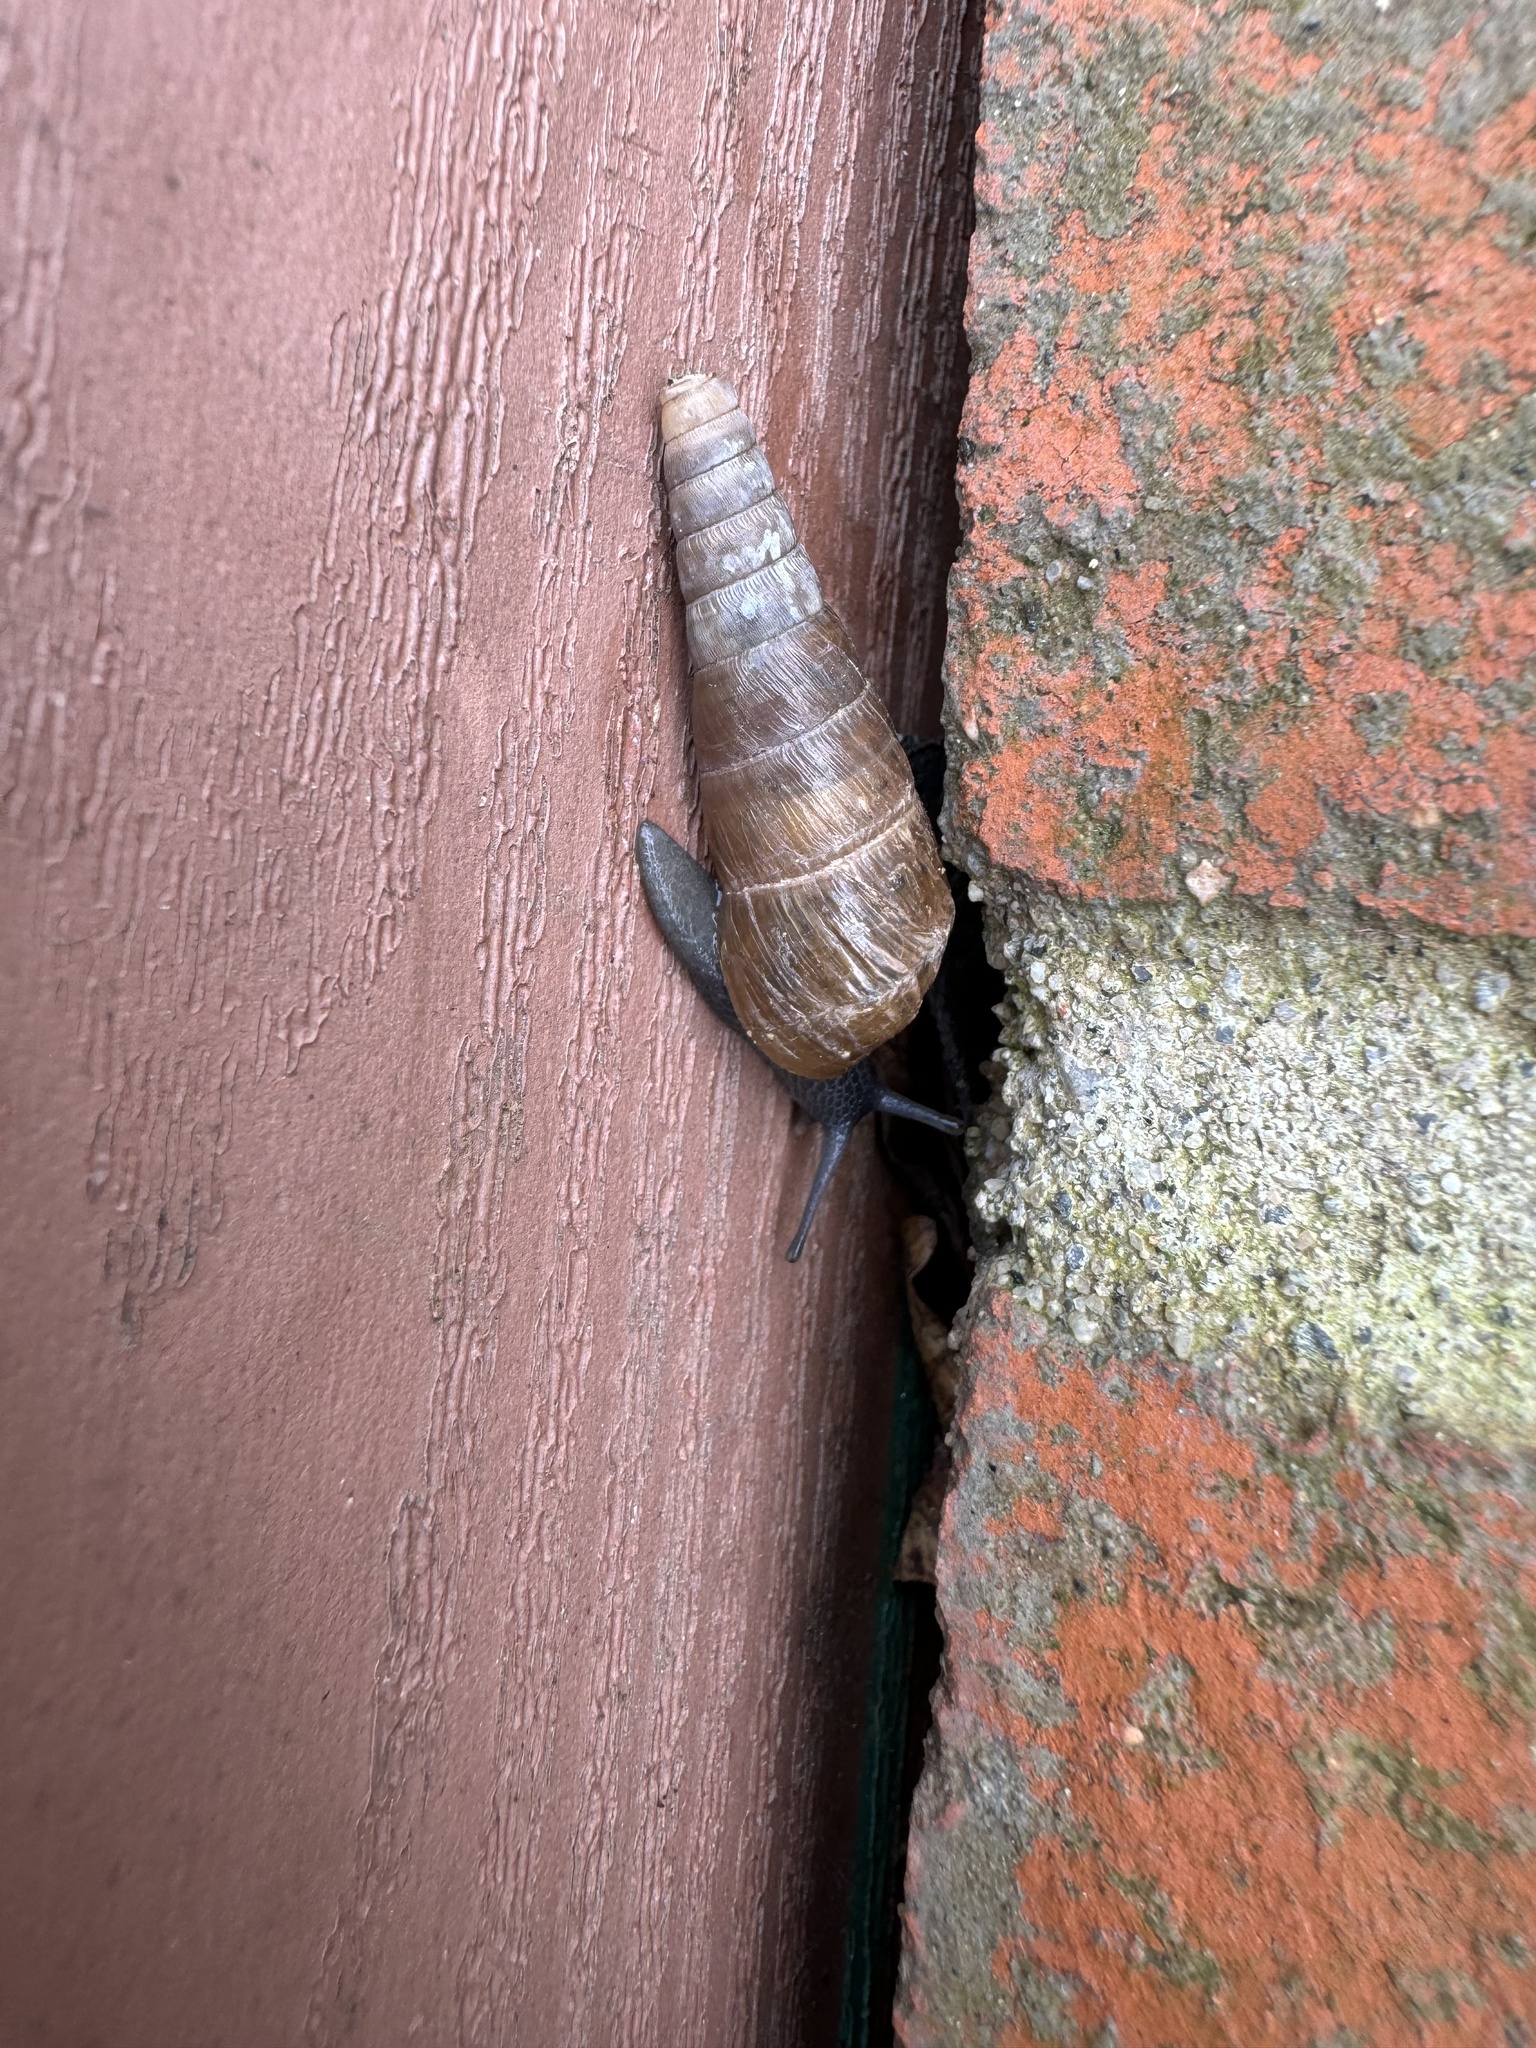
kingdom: Animalia
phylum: Mollusca
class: Gastropoda
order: Stylommatophora
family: Achatinidae
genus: Rumina
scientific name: Rumina decollata
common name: Decollate snail
